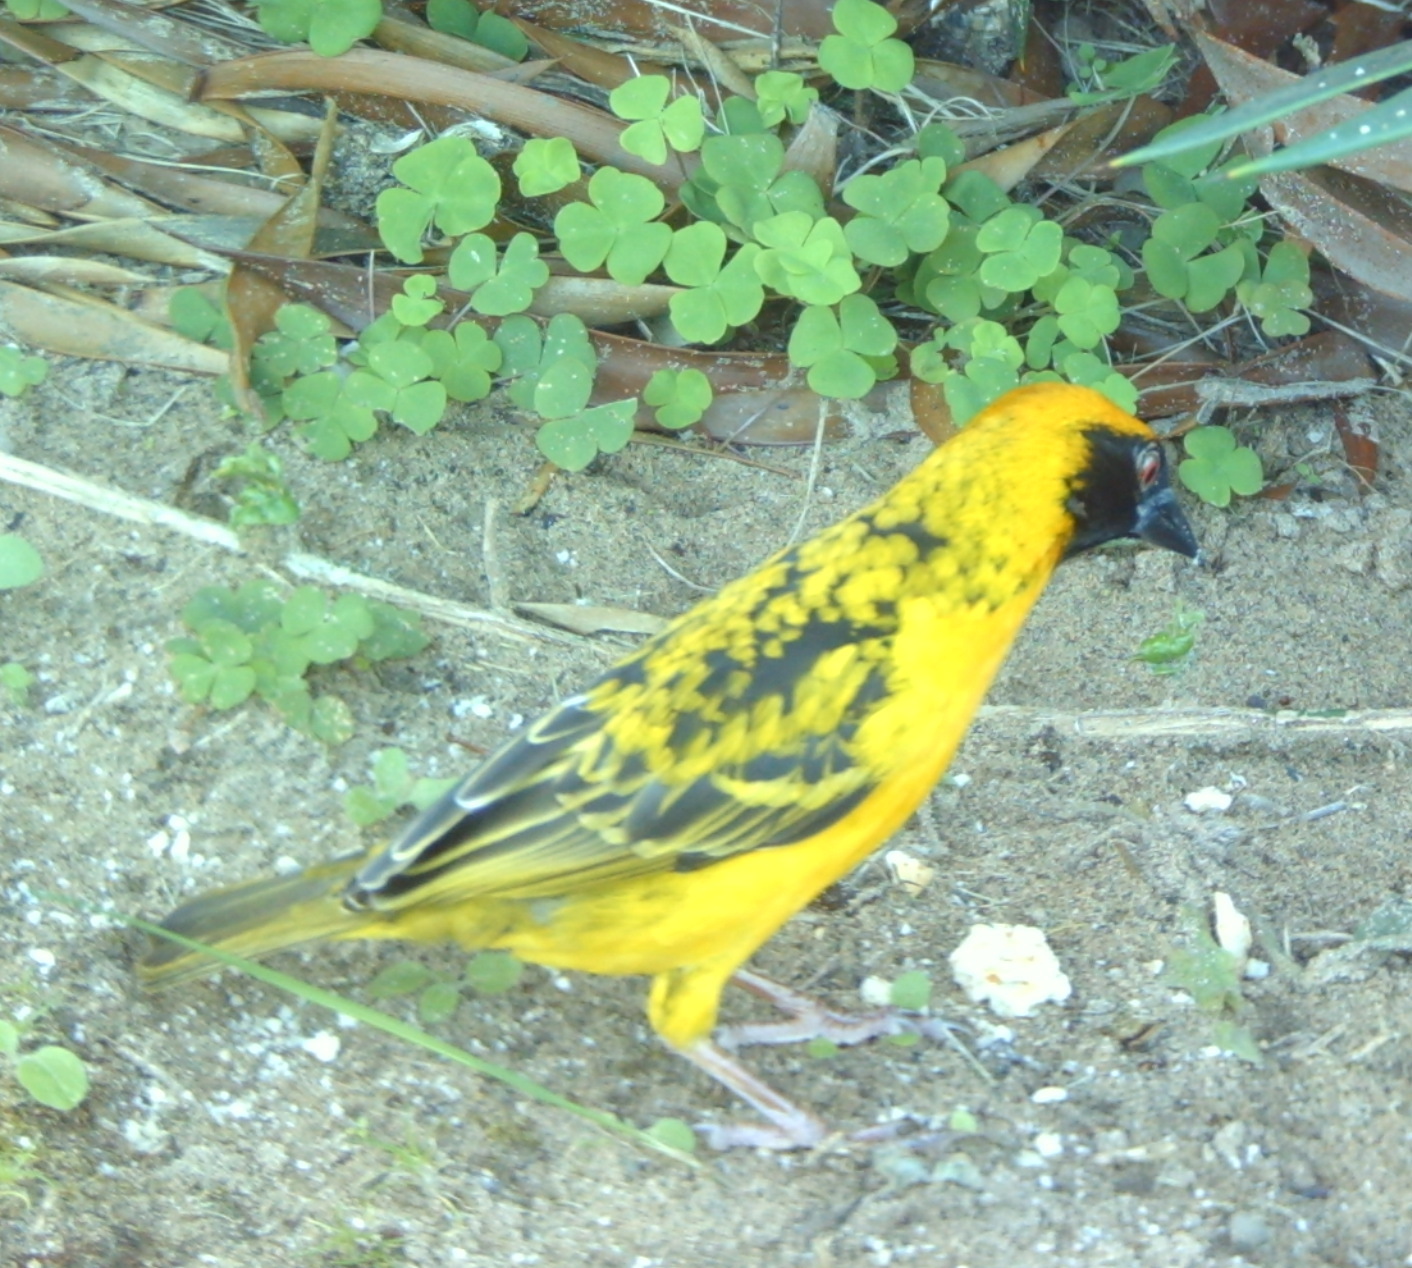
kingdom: Animalia
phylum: Chordata
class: Aves
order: Passeriformes
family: Ploceidae
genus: Ploceus
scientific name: Ploceus cucullatus
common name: Village weaver
